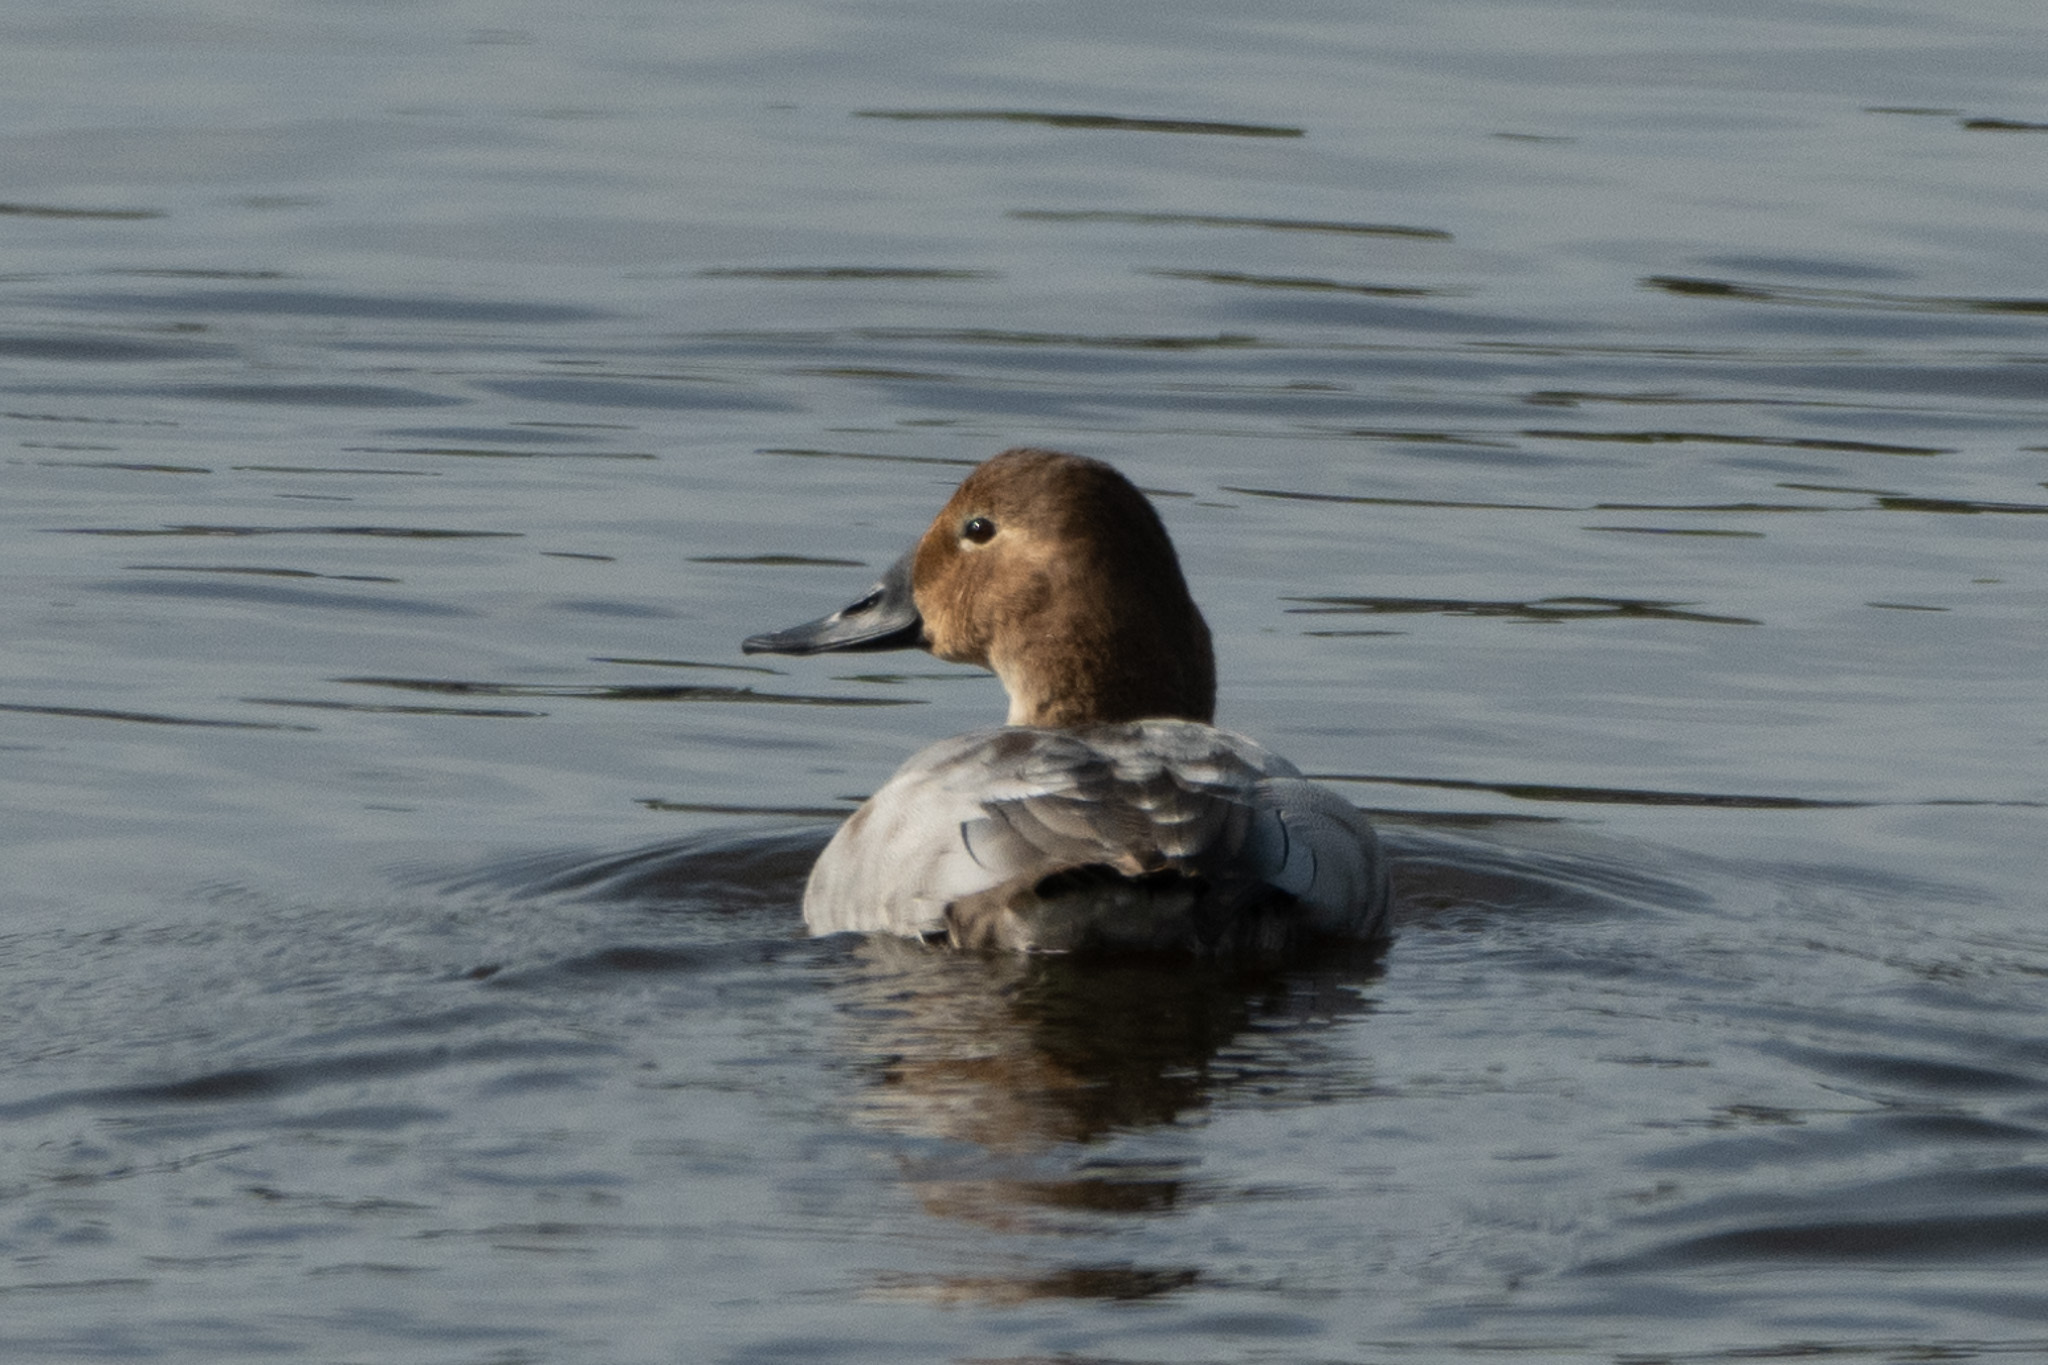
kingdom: Animalia
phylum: Chordata
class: Aves
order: Anseriformes
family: Anatidae
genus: Aythya
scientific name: Aythya valisineria
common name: Canvasback
